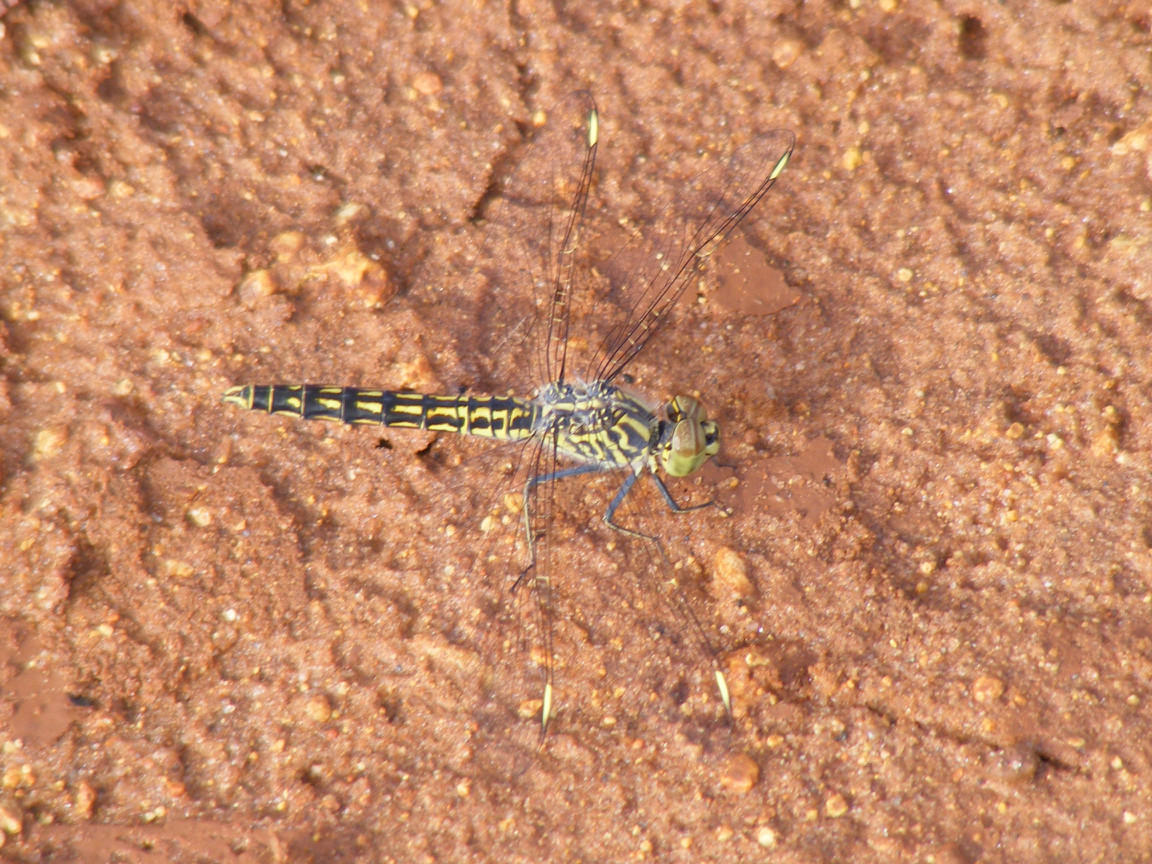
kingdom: Animalia
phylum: Arthropoda
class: Insecta
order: Odonata
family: Libellulidae
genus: Brachythemis
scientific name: Brachythemis leucosticta
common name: Banded groundling
